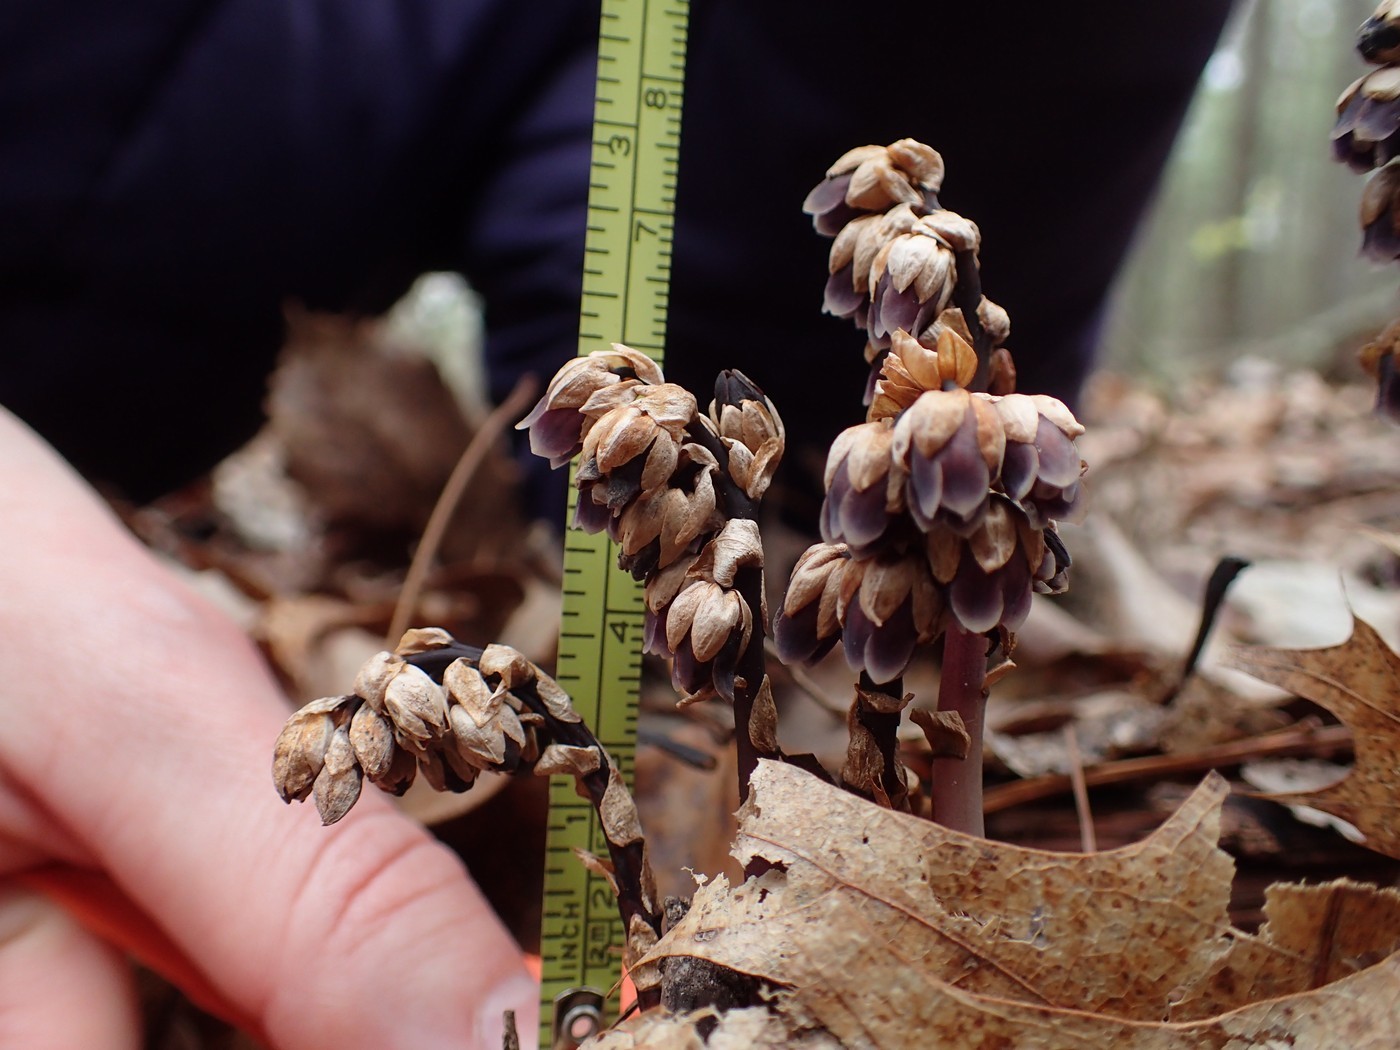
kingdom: Plantae
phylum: Tracheophyta
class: Magnoliopsida
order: Ericales
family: Ericaceae
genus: Monotropsis
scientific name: Monotropsis odorata
